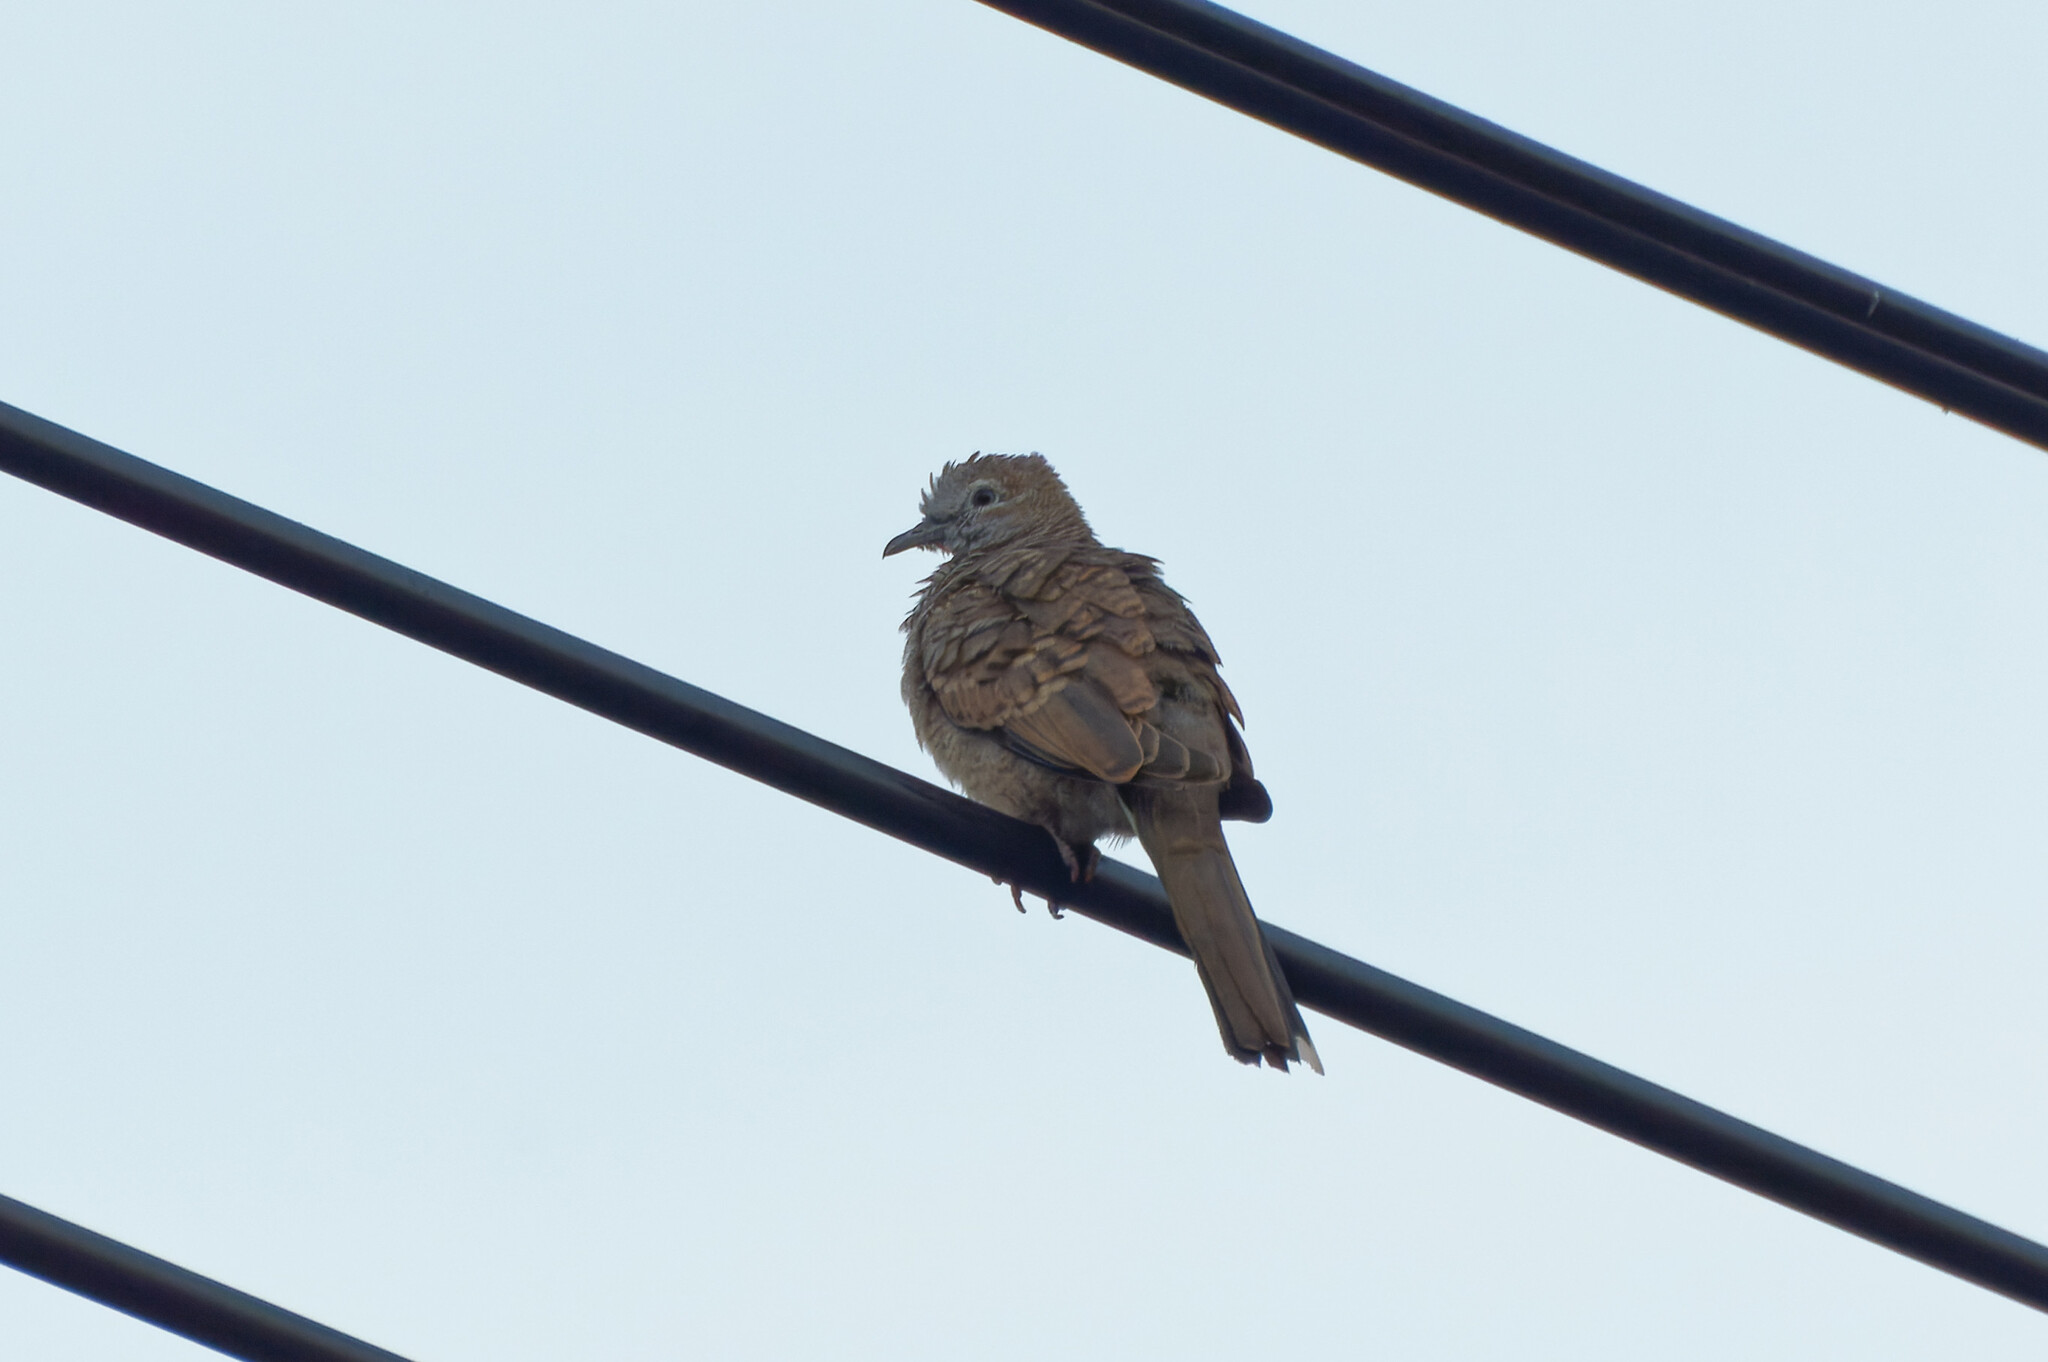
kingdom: Animalia
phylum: Chordata
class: Aves
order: Columbiformes
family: Columbidae
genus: Geopelia
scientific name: Geopelia striata
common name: Zebra dove
